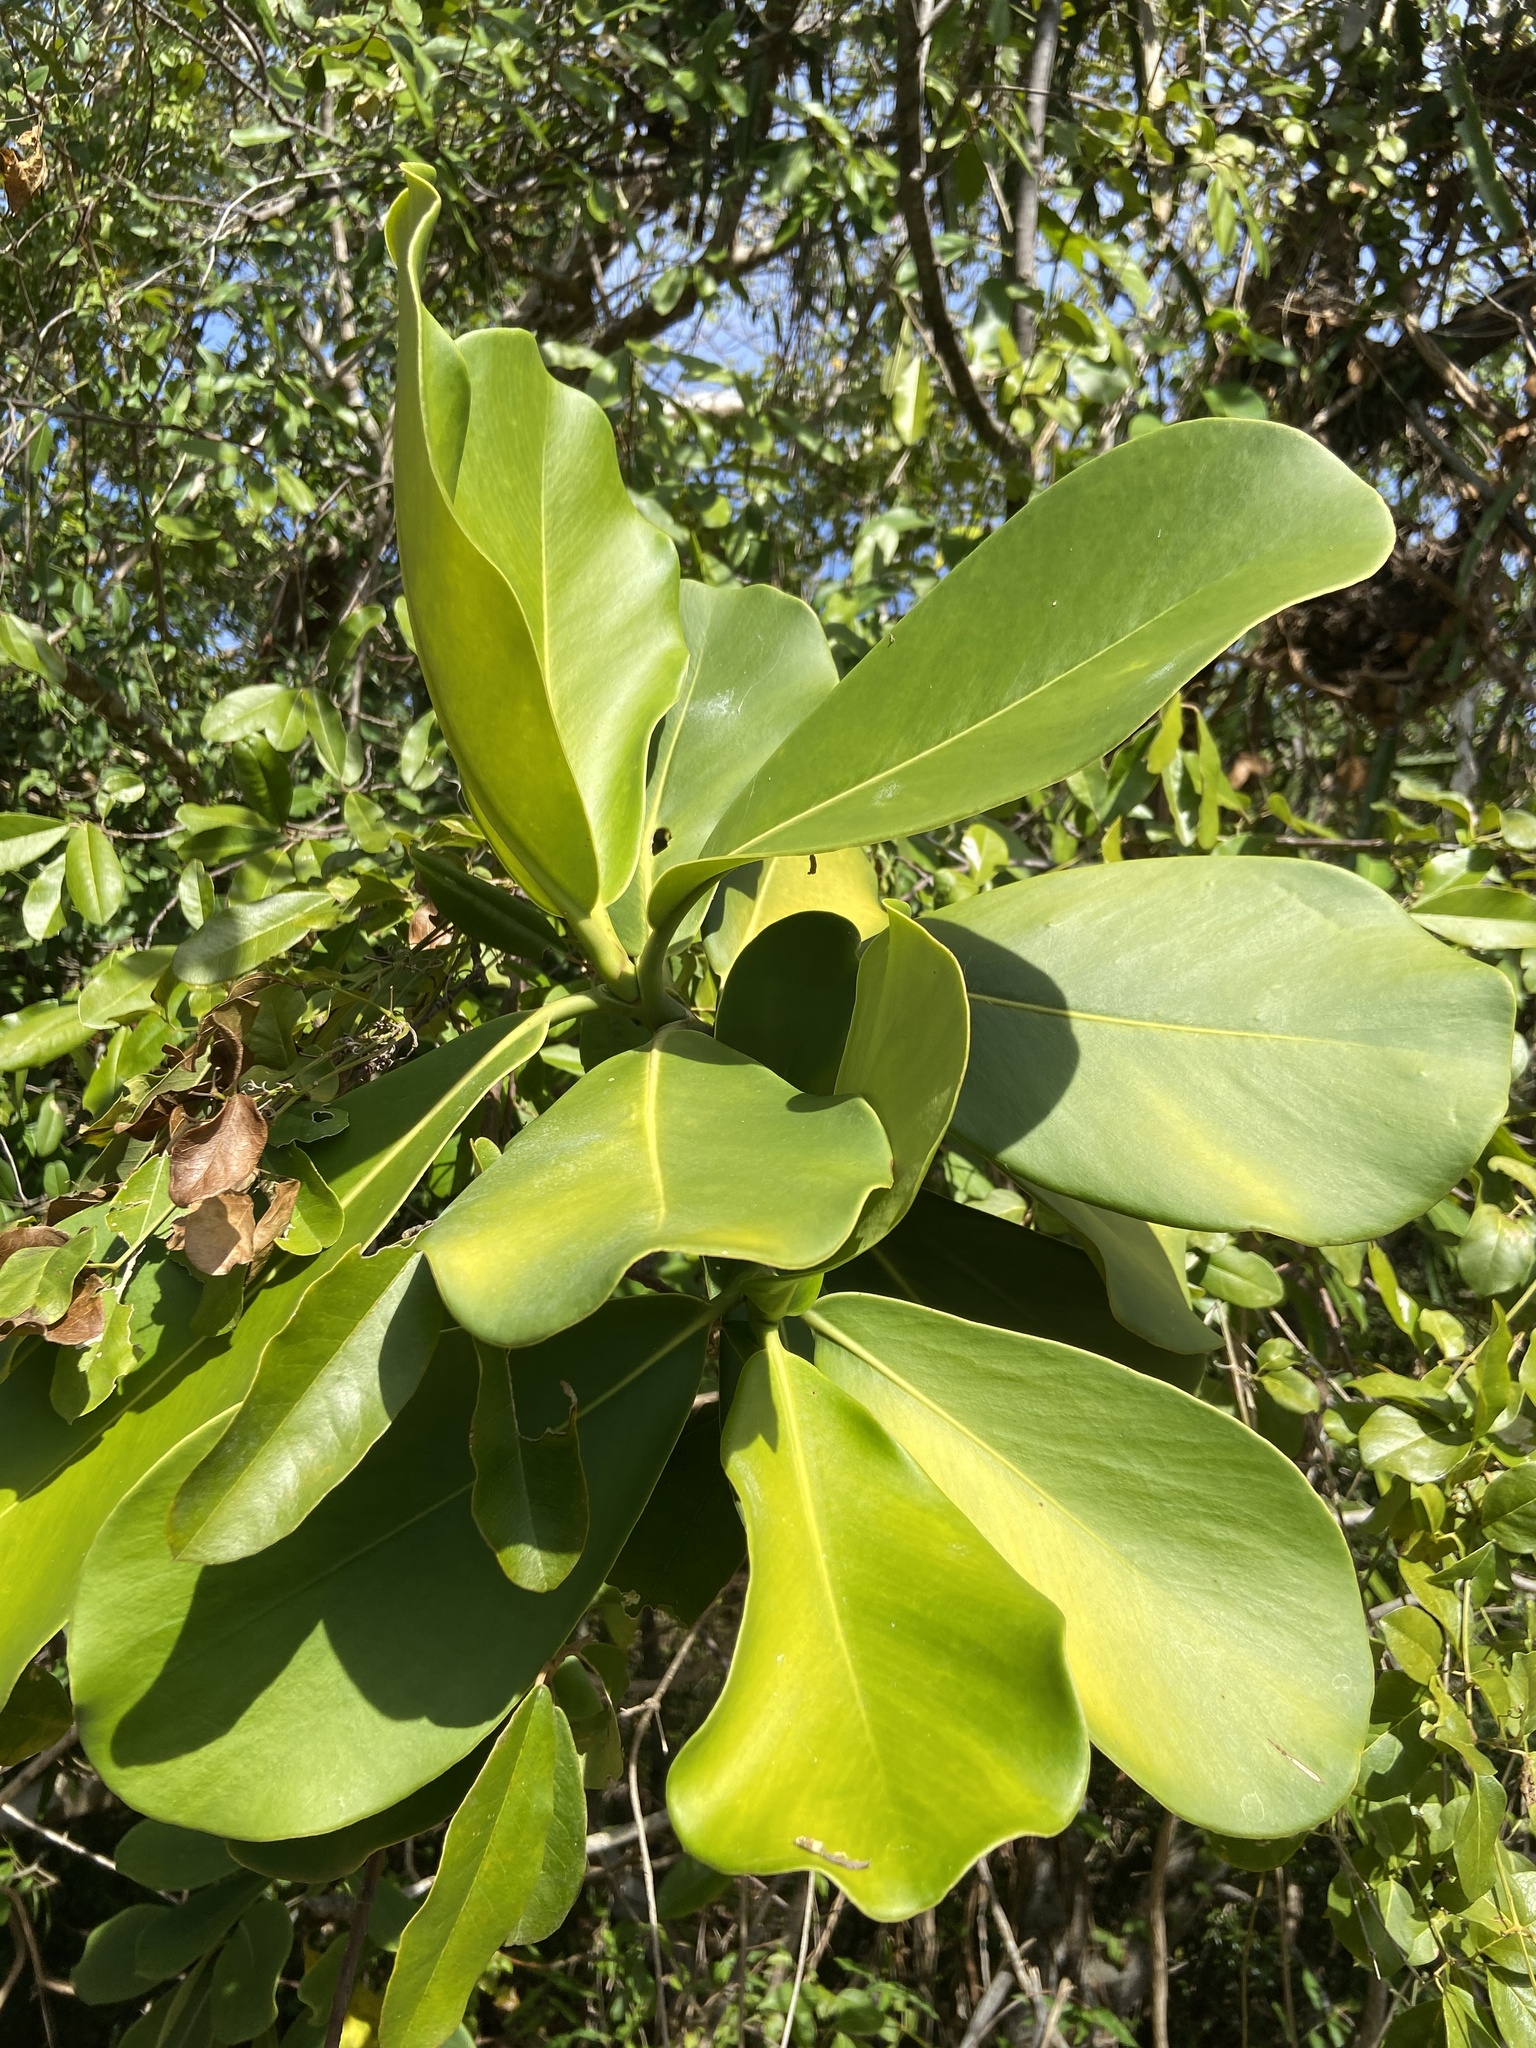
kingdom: Plantae
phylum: Tracheophyta
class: Magnoliopsida
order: Malpighiales
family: Clusiaceae
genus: Clusia
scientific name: Clusia rosea
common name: Scotch attorney
